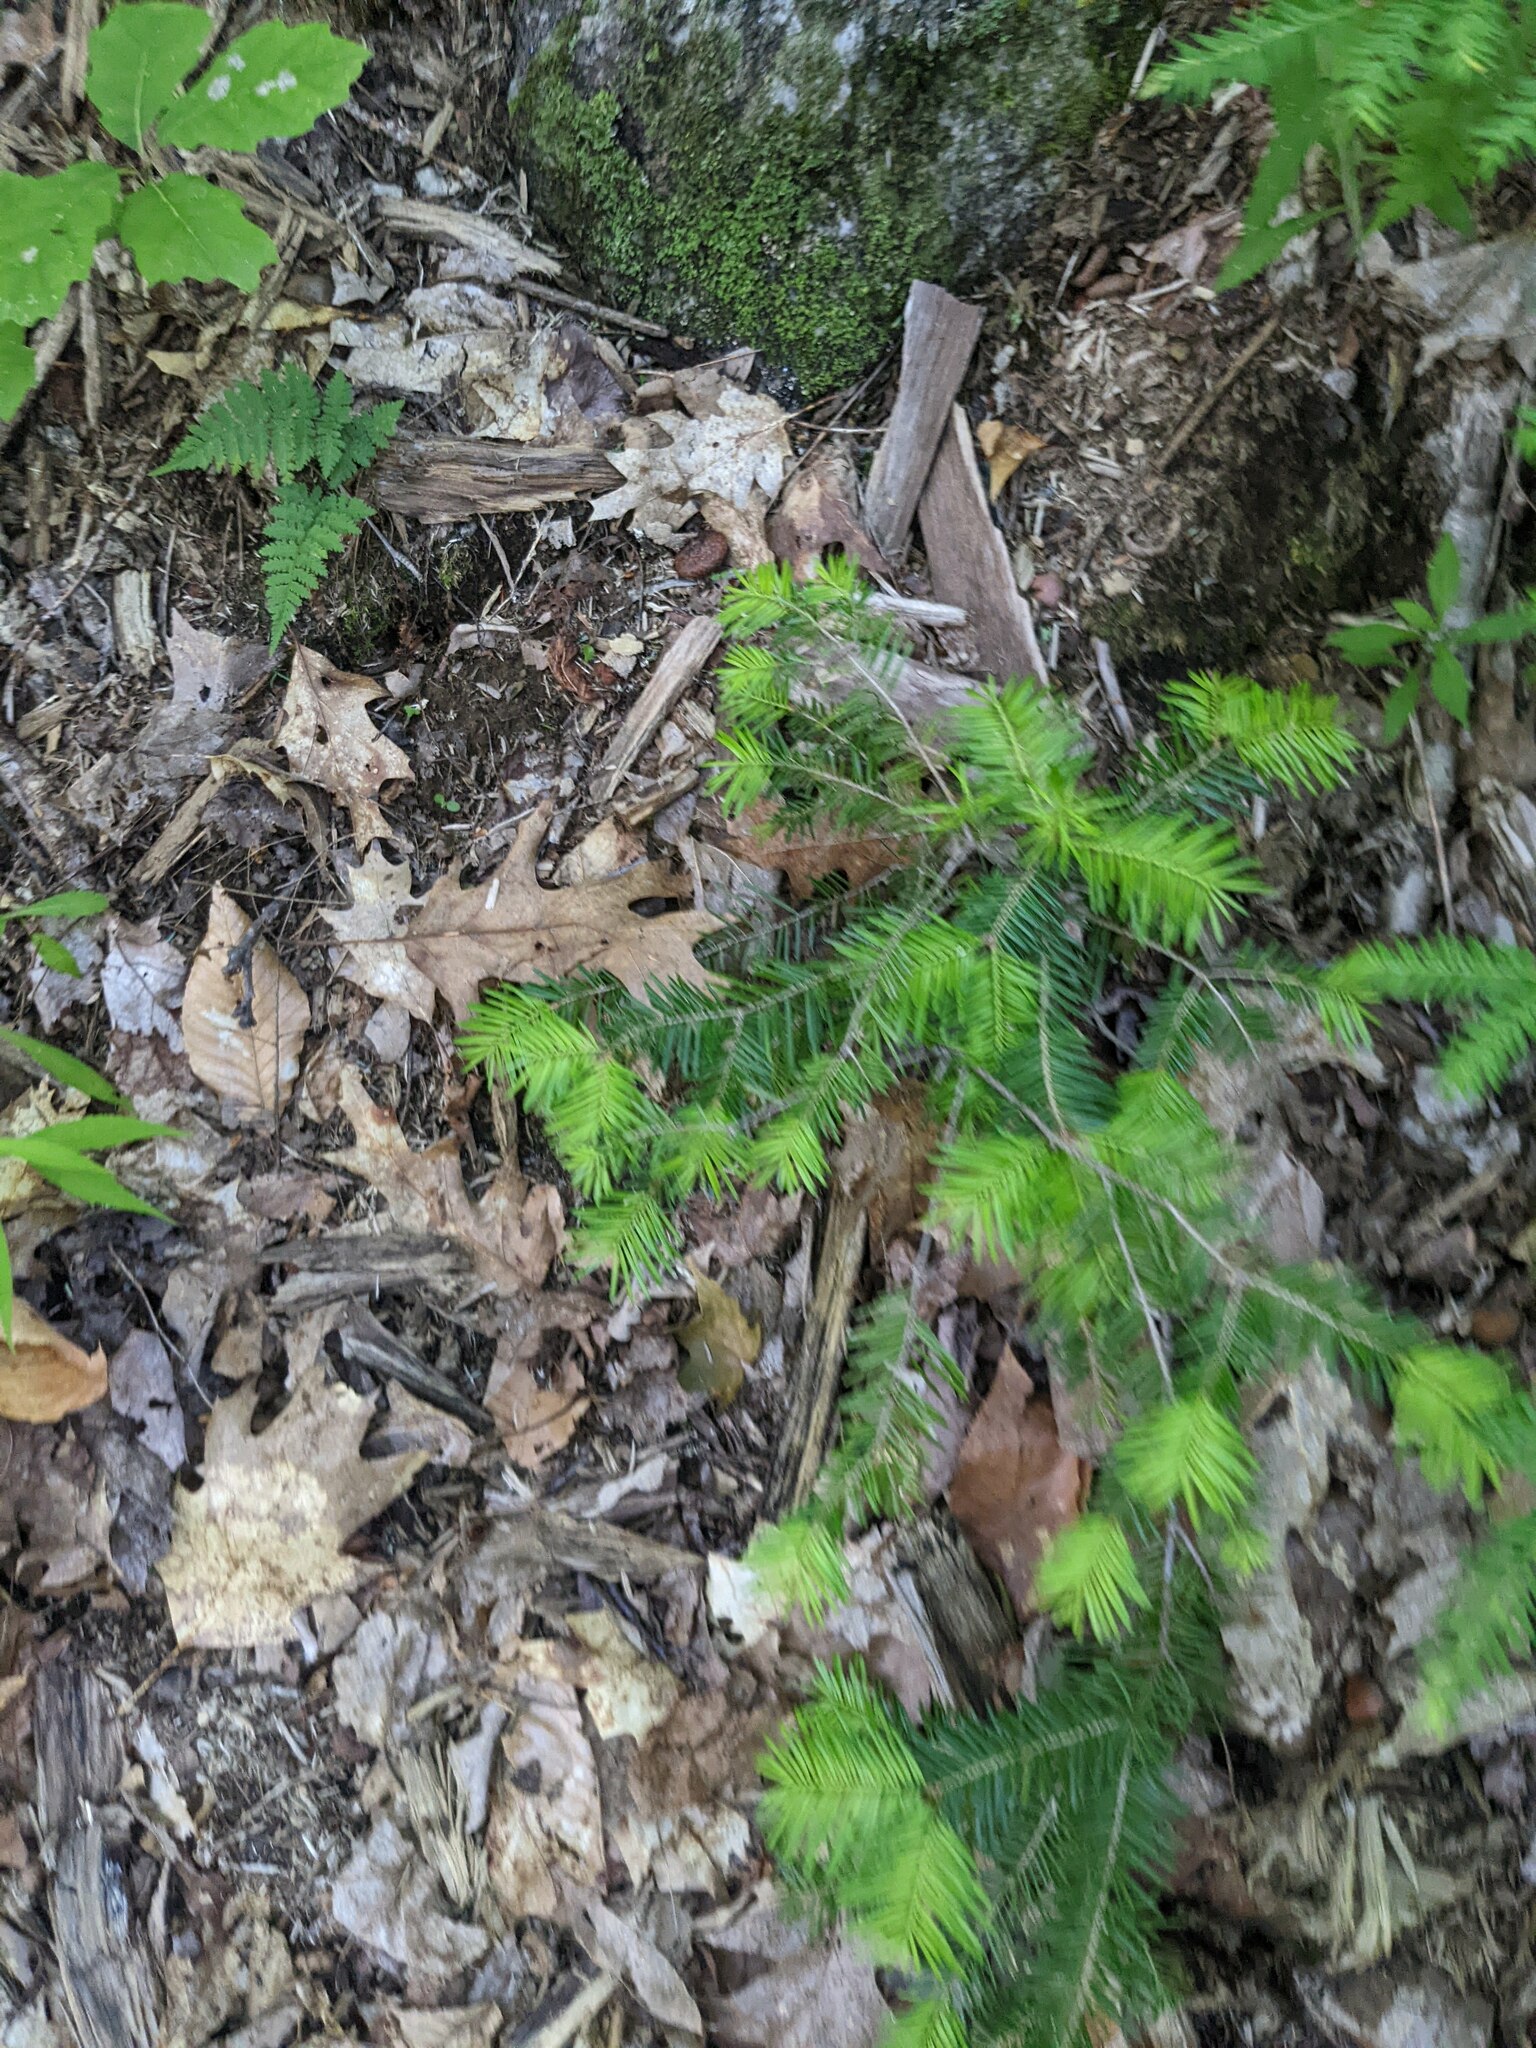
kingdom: Plantae
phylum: Tracheophyta
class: Pinopsida
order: Pinales
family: Pinaceae
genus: Abies
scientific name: Abies balsamea
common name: Balsam fir
